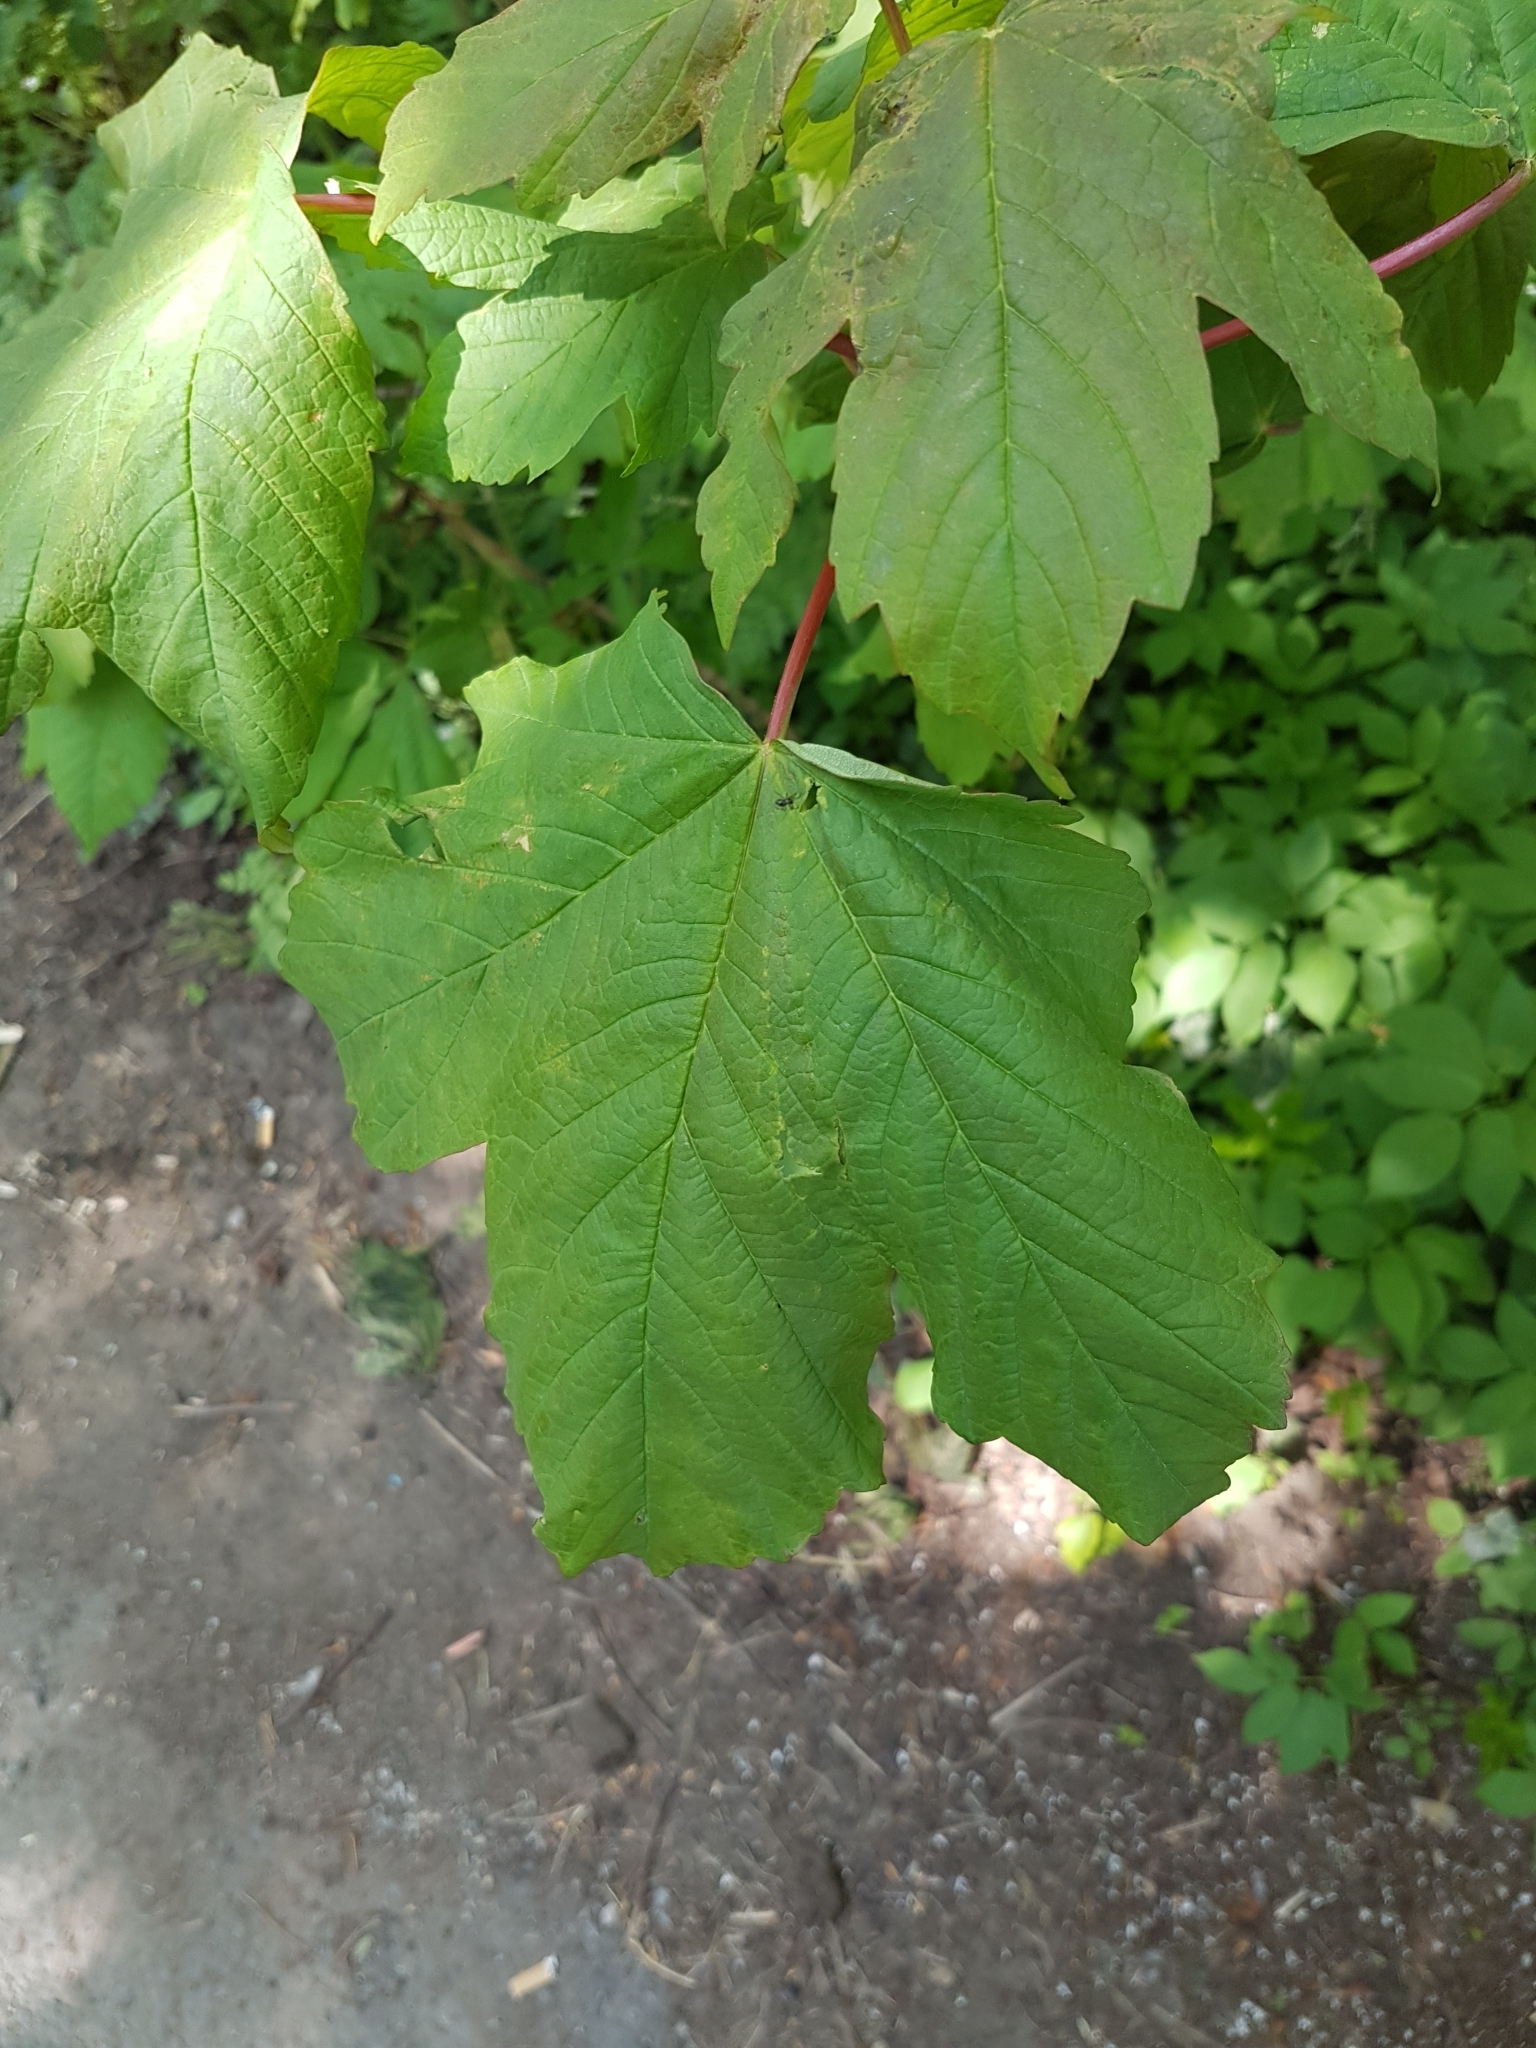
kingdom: Plantae
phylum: Tracheophyta
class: Magnoliopsida
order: Sapindales
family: Sapindaceae
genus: Acer
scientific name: Acer pseudoplatanus
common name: Sycamore
